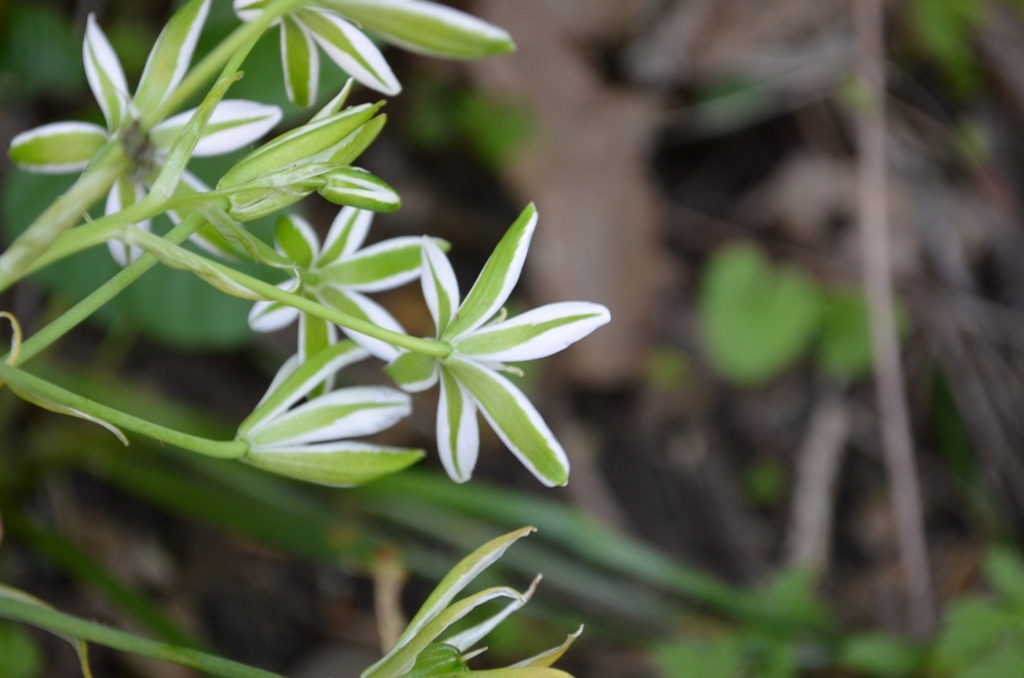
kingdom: Plantae
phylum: Tracheophyta
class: Liliopsida
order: Asparagales
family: Asparagaceae
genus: Ornithogalum
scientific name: Ornithogalum umbellatum
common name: Garden star-of-bethlehem
